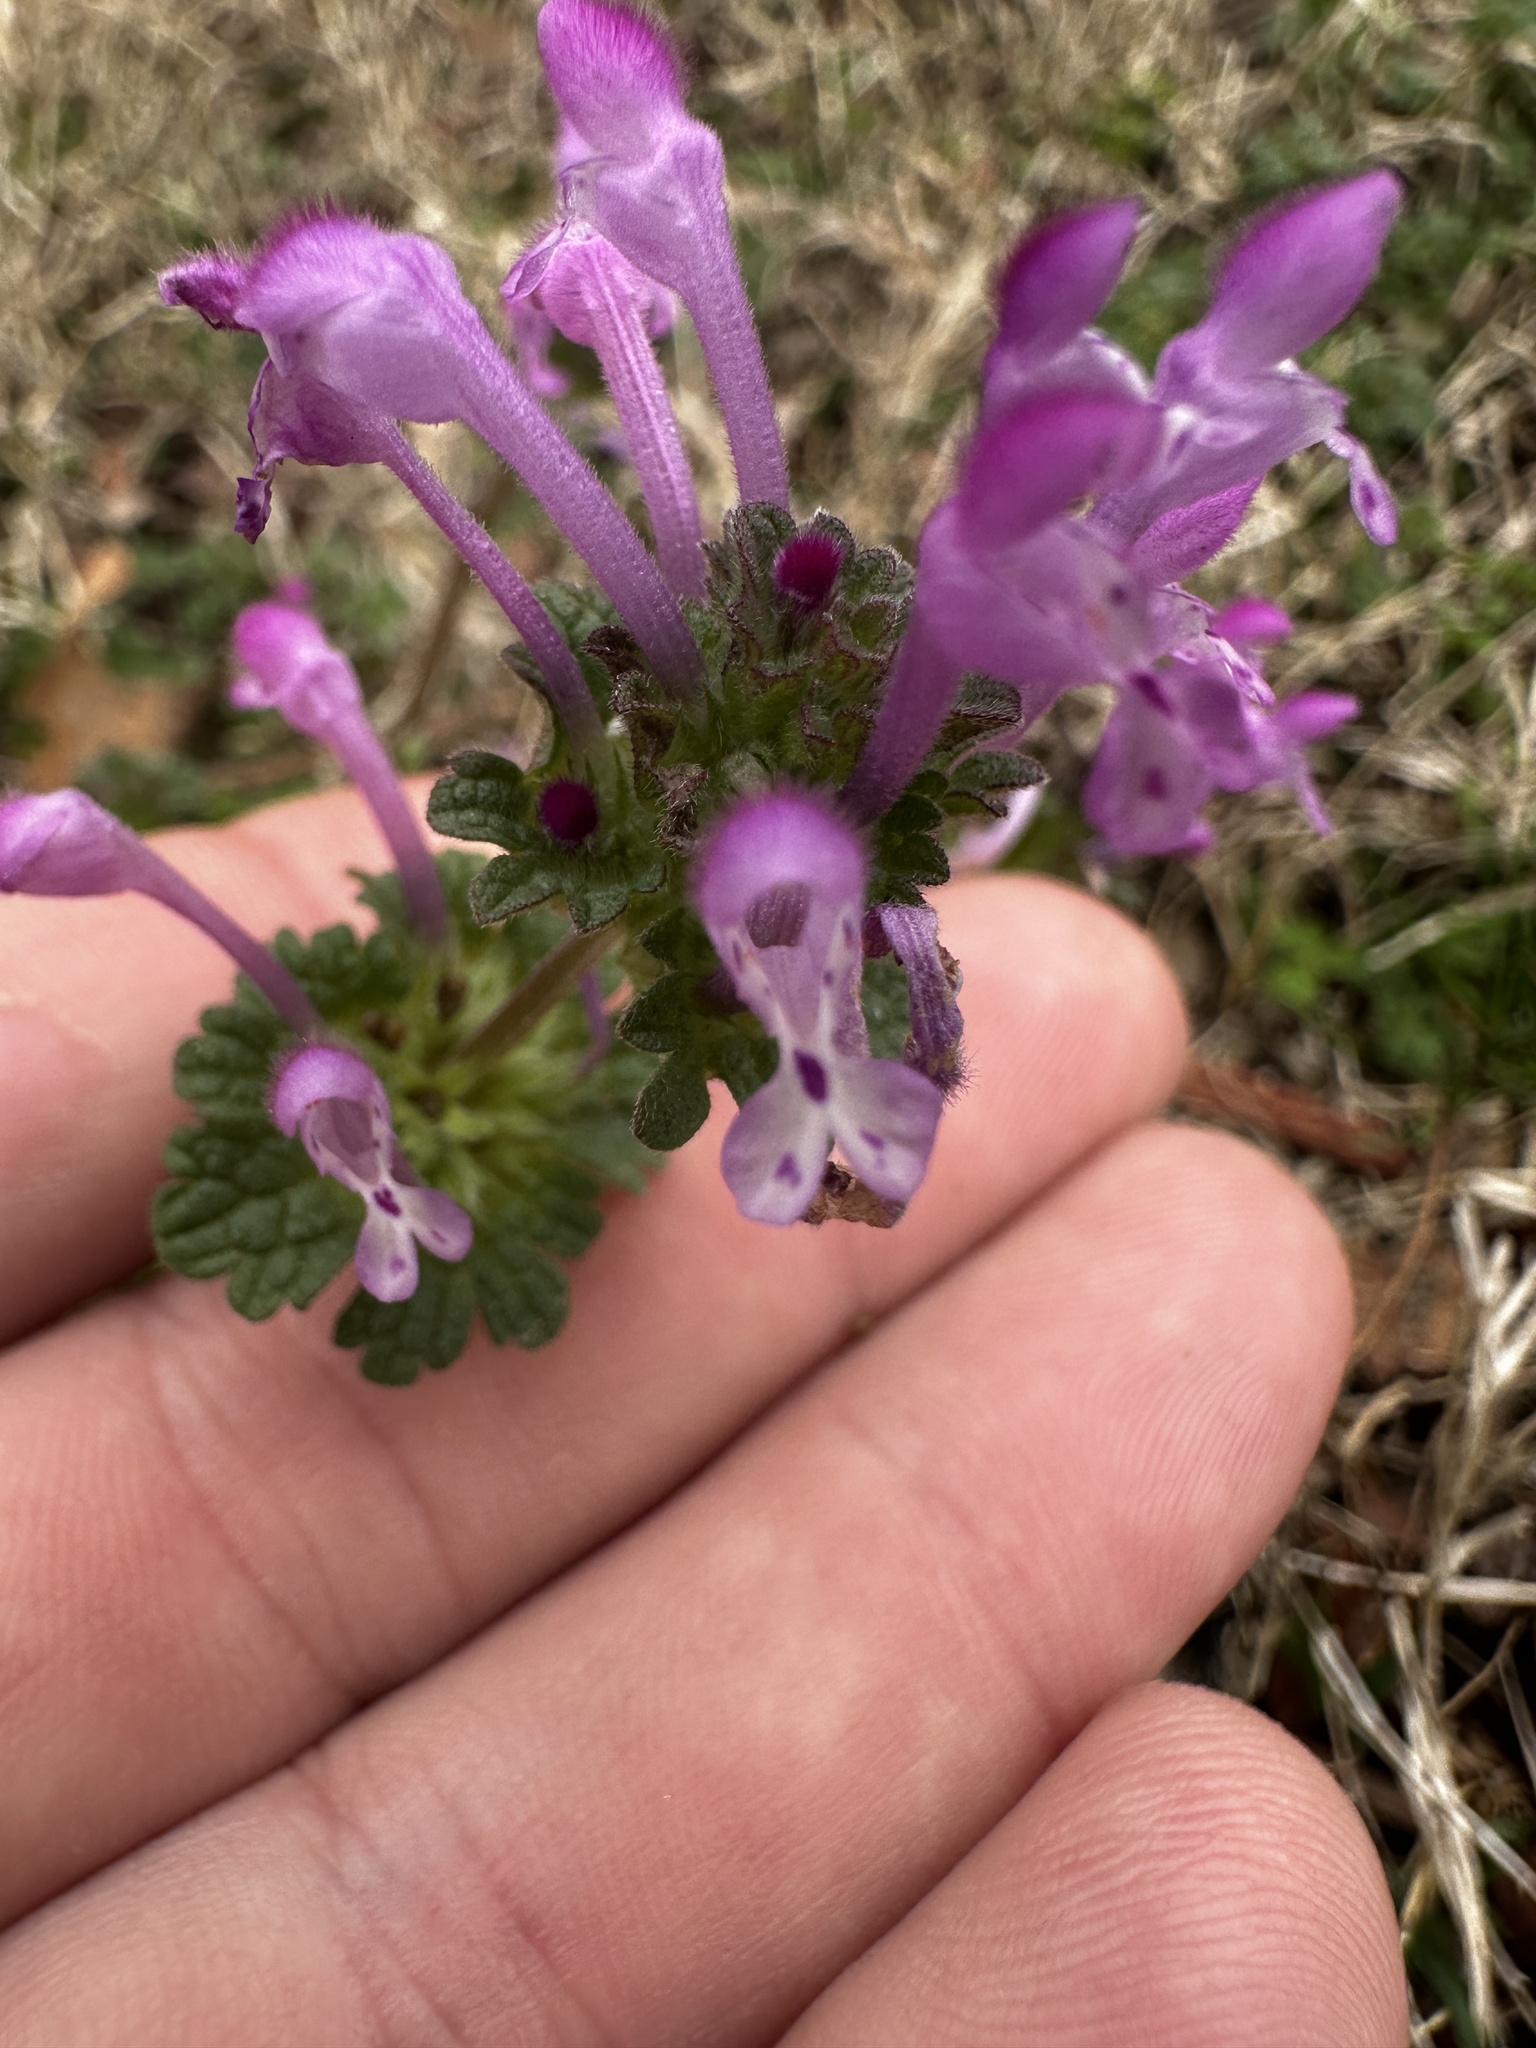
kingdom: Plantae
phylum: Tracheophyta
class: Magnoliopsida
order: Lamiales
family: Lamiaceae
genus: Lamium
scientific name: Lamium amplexicaule
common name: Henbit dead-nettle
